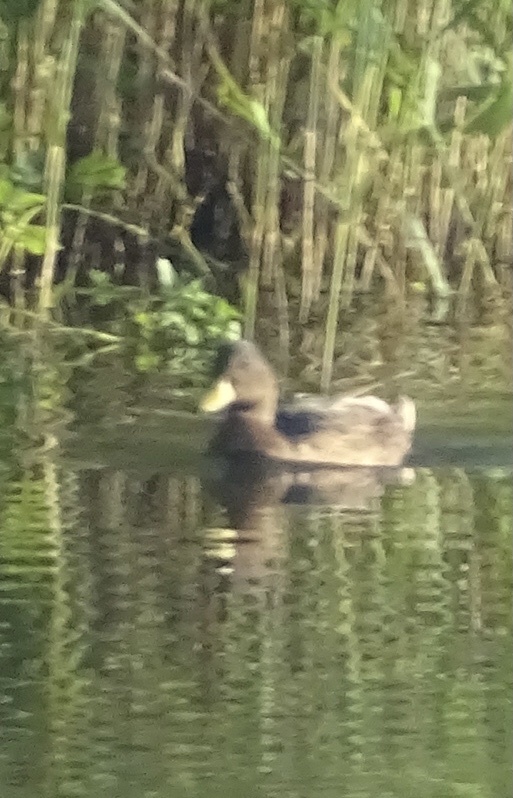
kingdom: Animalia
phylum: Chordata
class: Aves
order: Anseriformes
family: Anatidae
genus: Anas
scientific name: Anas platyrhynchos
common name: Mallard
